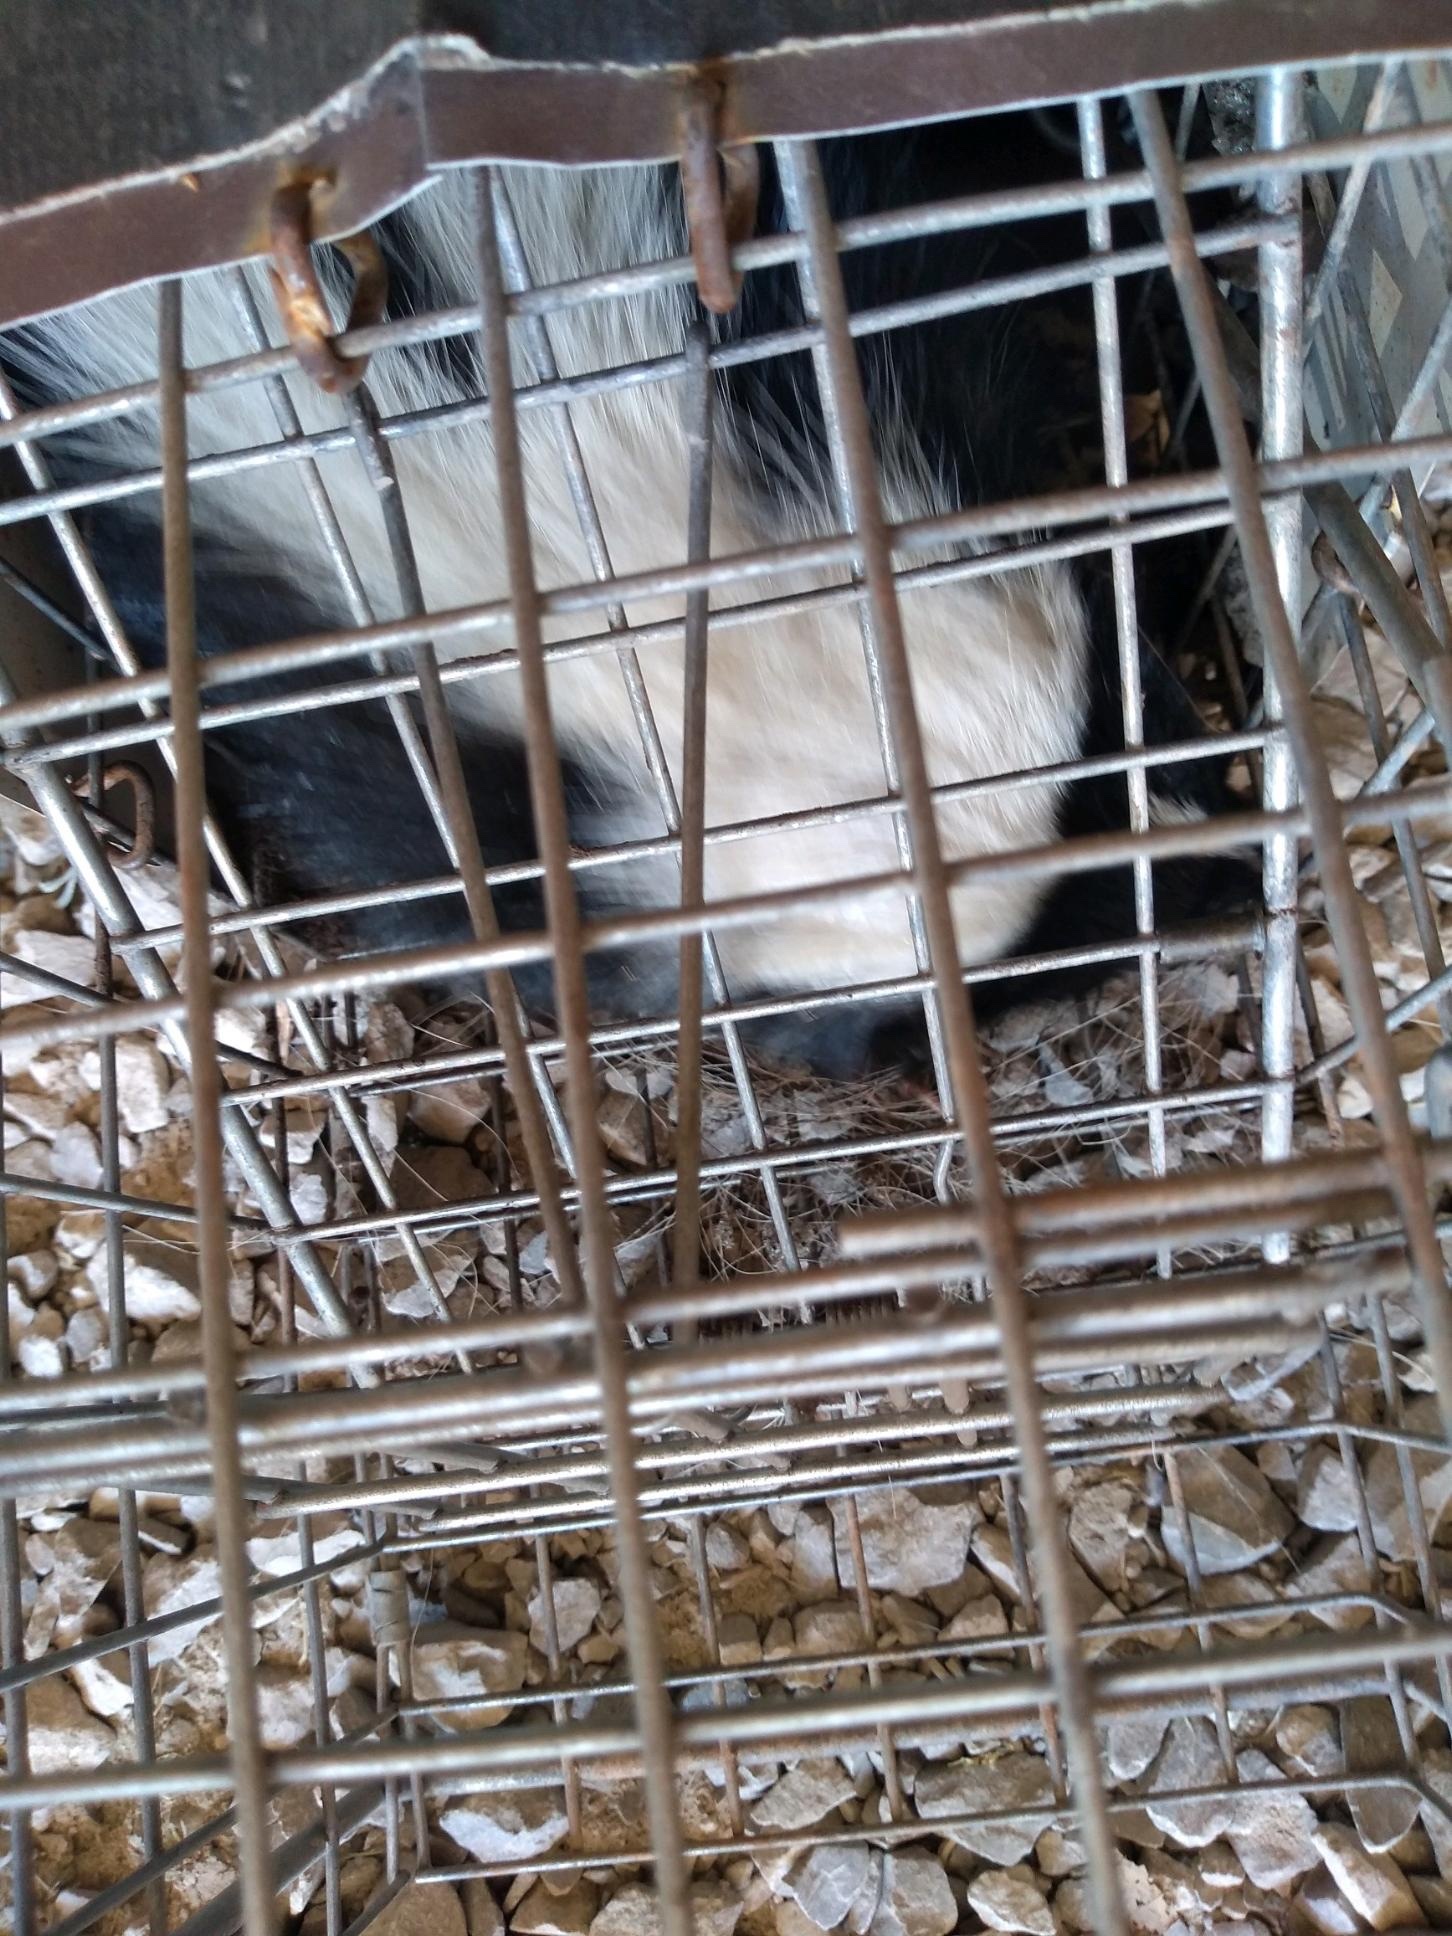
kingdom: Animalia
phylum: Chordata
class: Mammalia
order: Carnivora
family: Mephitidae
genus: Mephitis
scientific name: Mephitis mephitis
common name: Striped skunk
